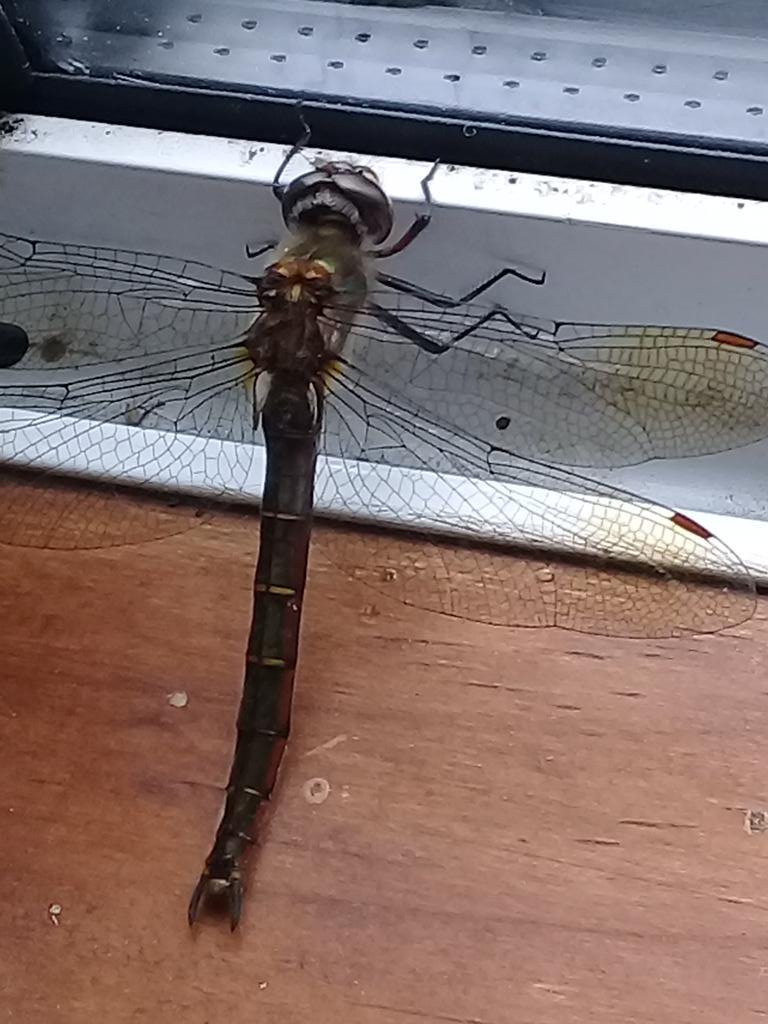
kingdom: Animalia
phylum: Arthropoda
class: Insecta
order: Odonata
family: Corduliidae
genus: Procordulia
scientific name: Procordulia smithii
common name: Ranger dragonfly
